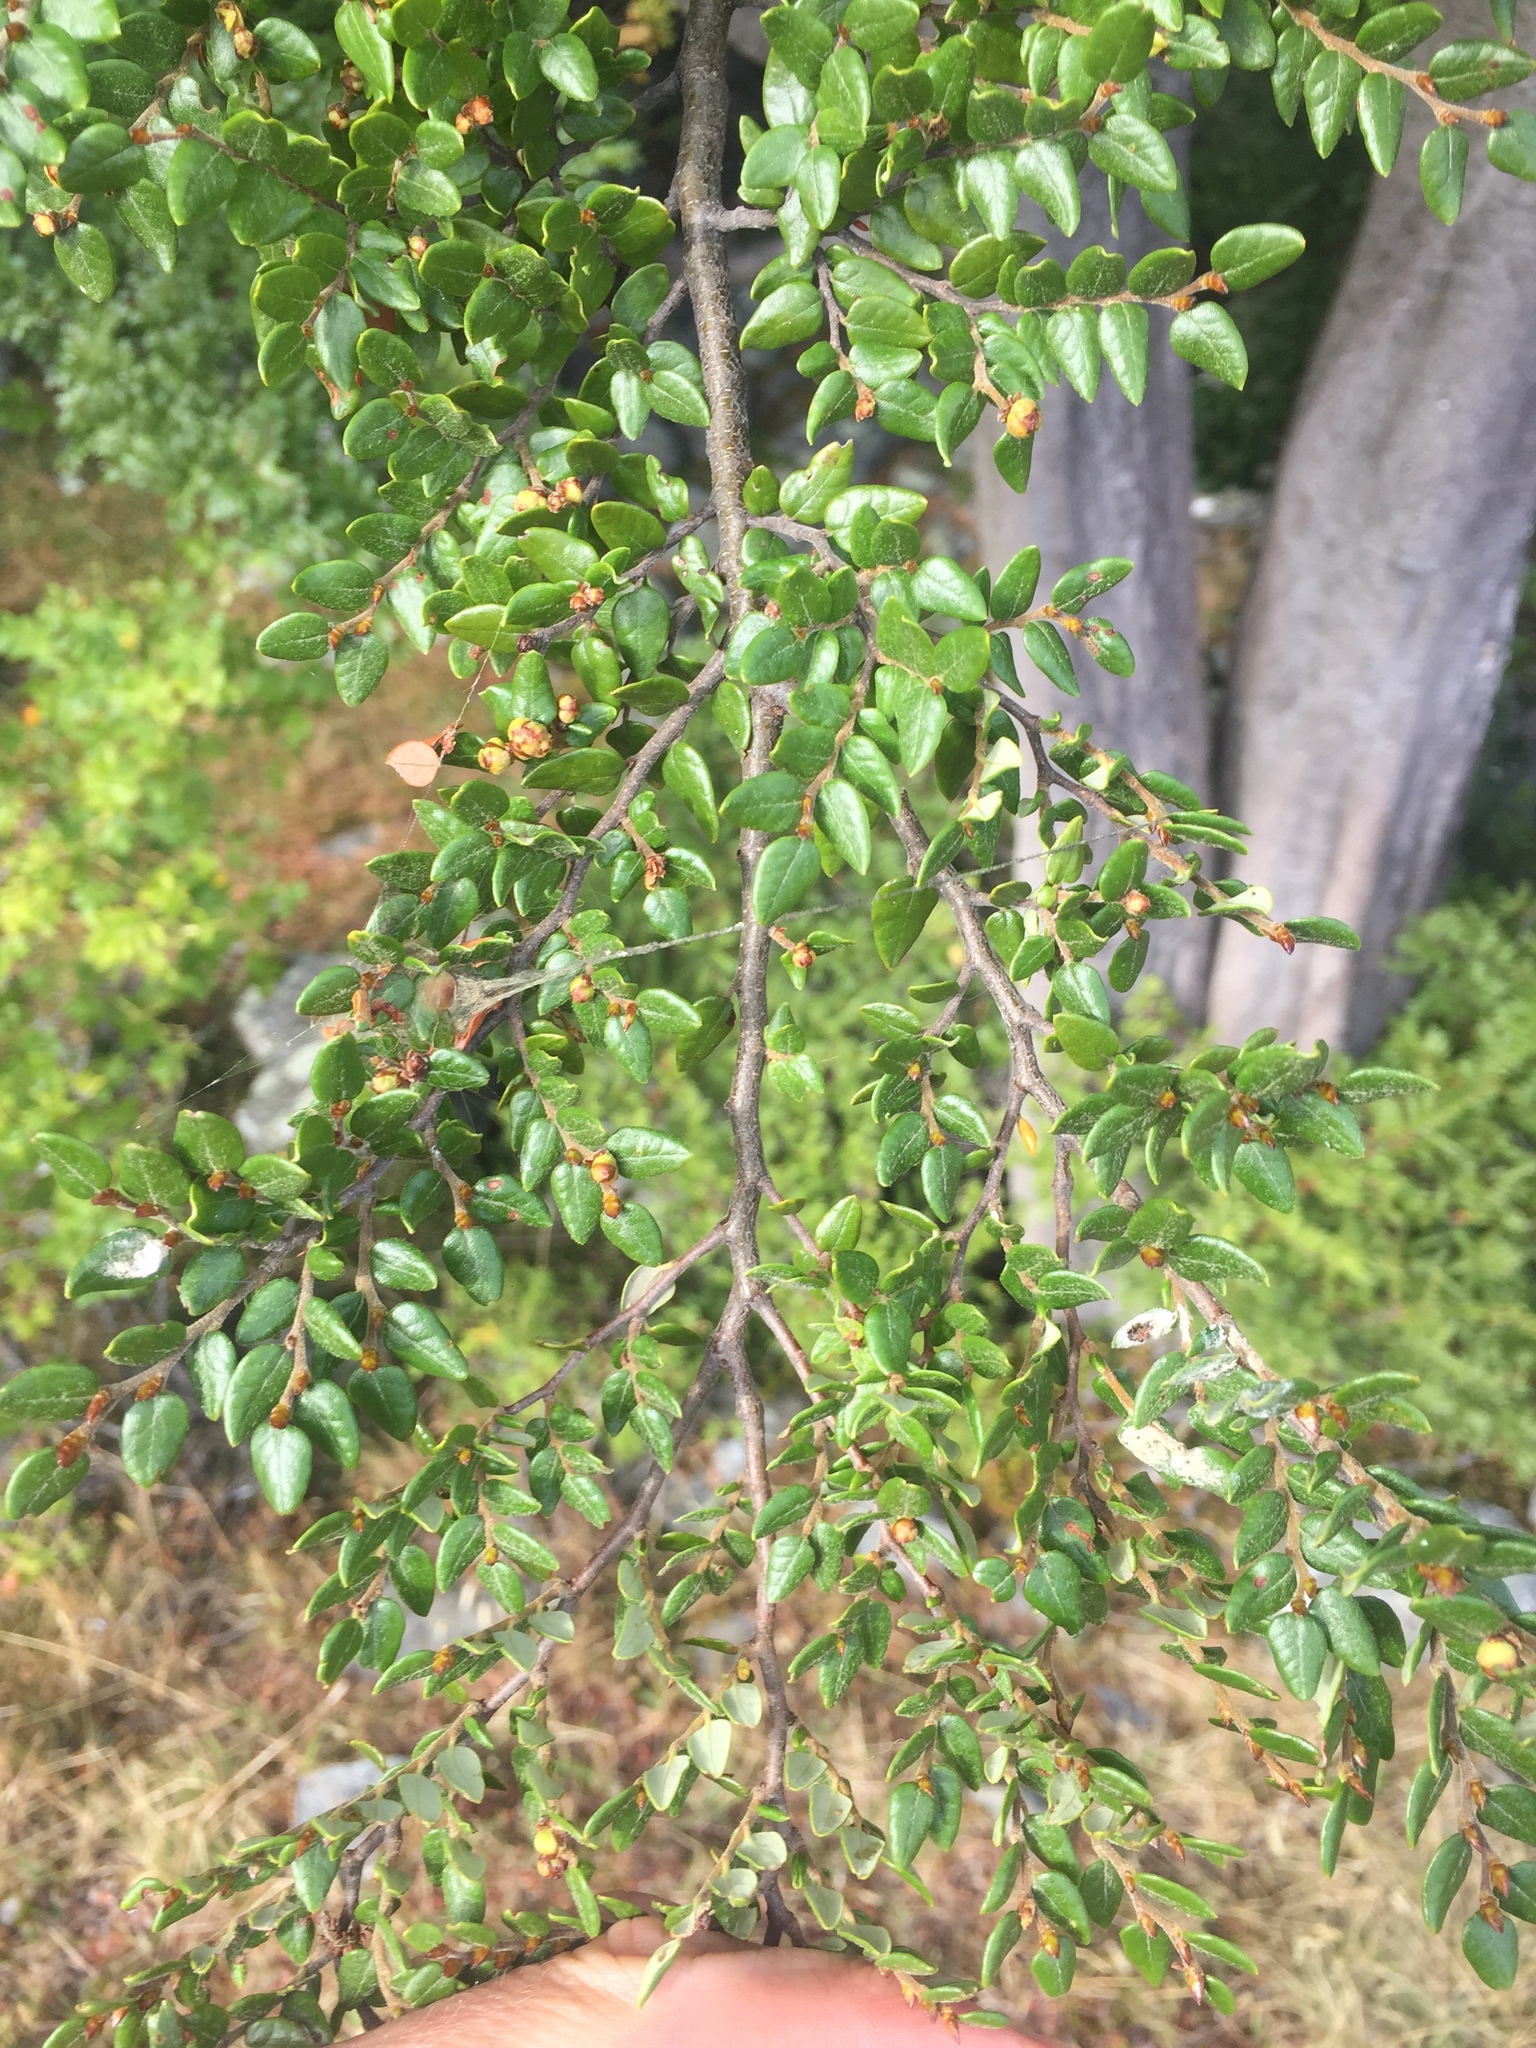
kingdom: Plantae
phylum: Tracheophyta
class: Magnoliopsida
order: Fagales
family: Nothofagaceae
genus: Nothofagus
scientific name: Nothofagus cliffortioides
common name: Mountain beech
